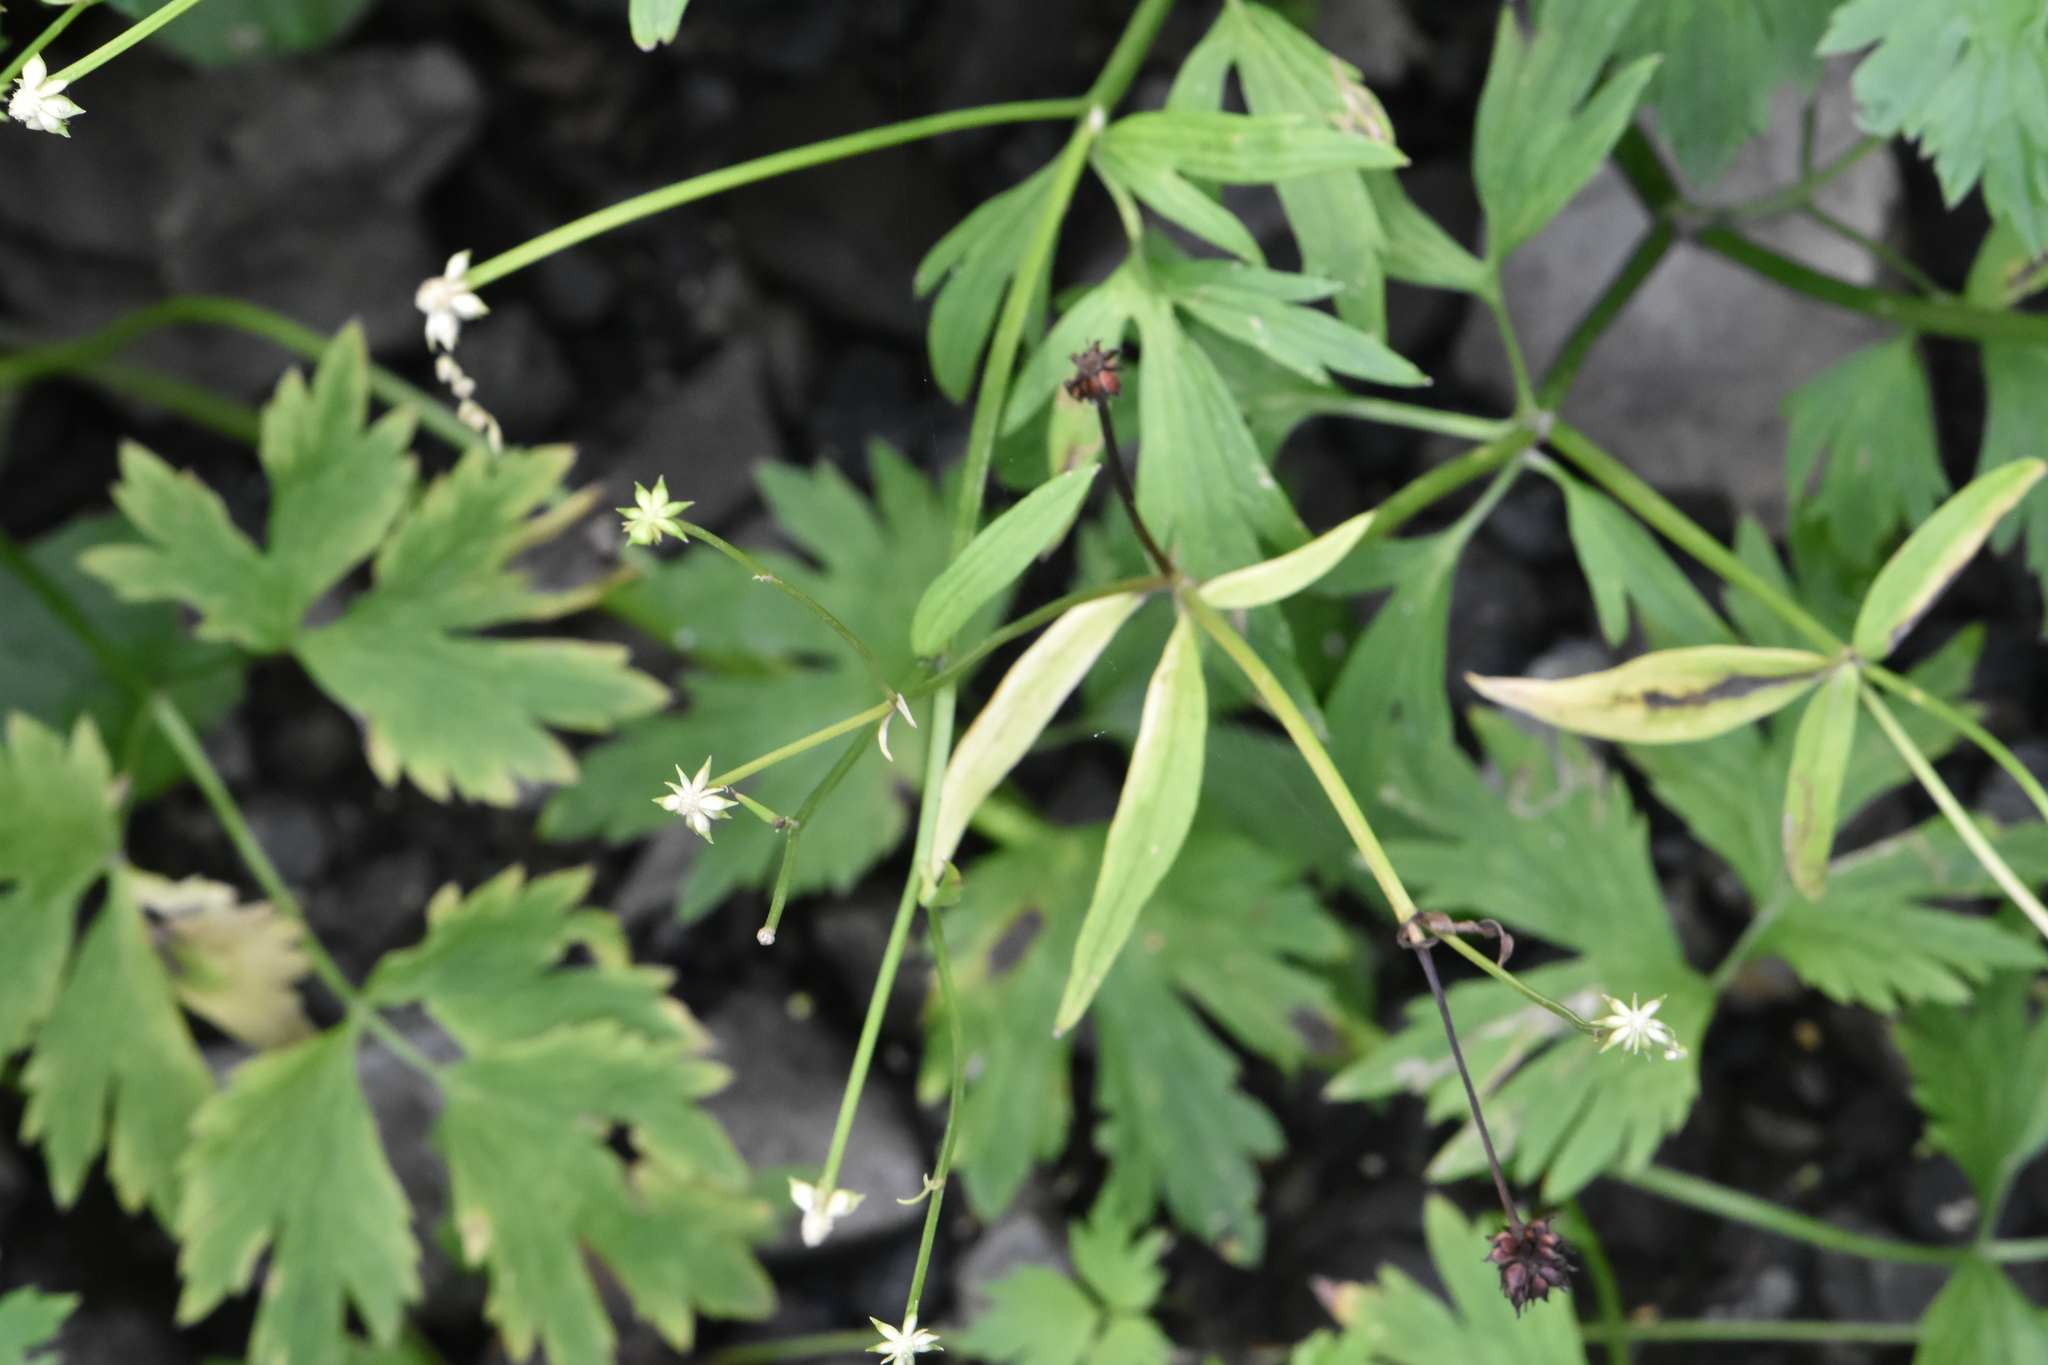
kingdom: Plantae
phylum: Tracheophyta
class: Magnoliopsida
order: Ranunculales
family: Ranunculaceae
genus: Ranunculus
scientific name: Ranunculus repens
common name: Creeping buttercup
